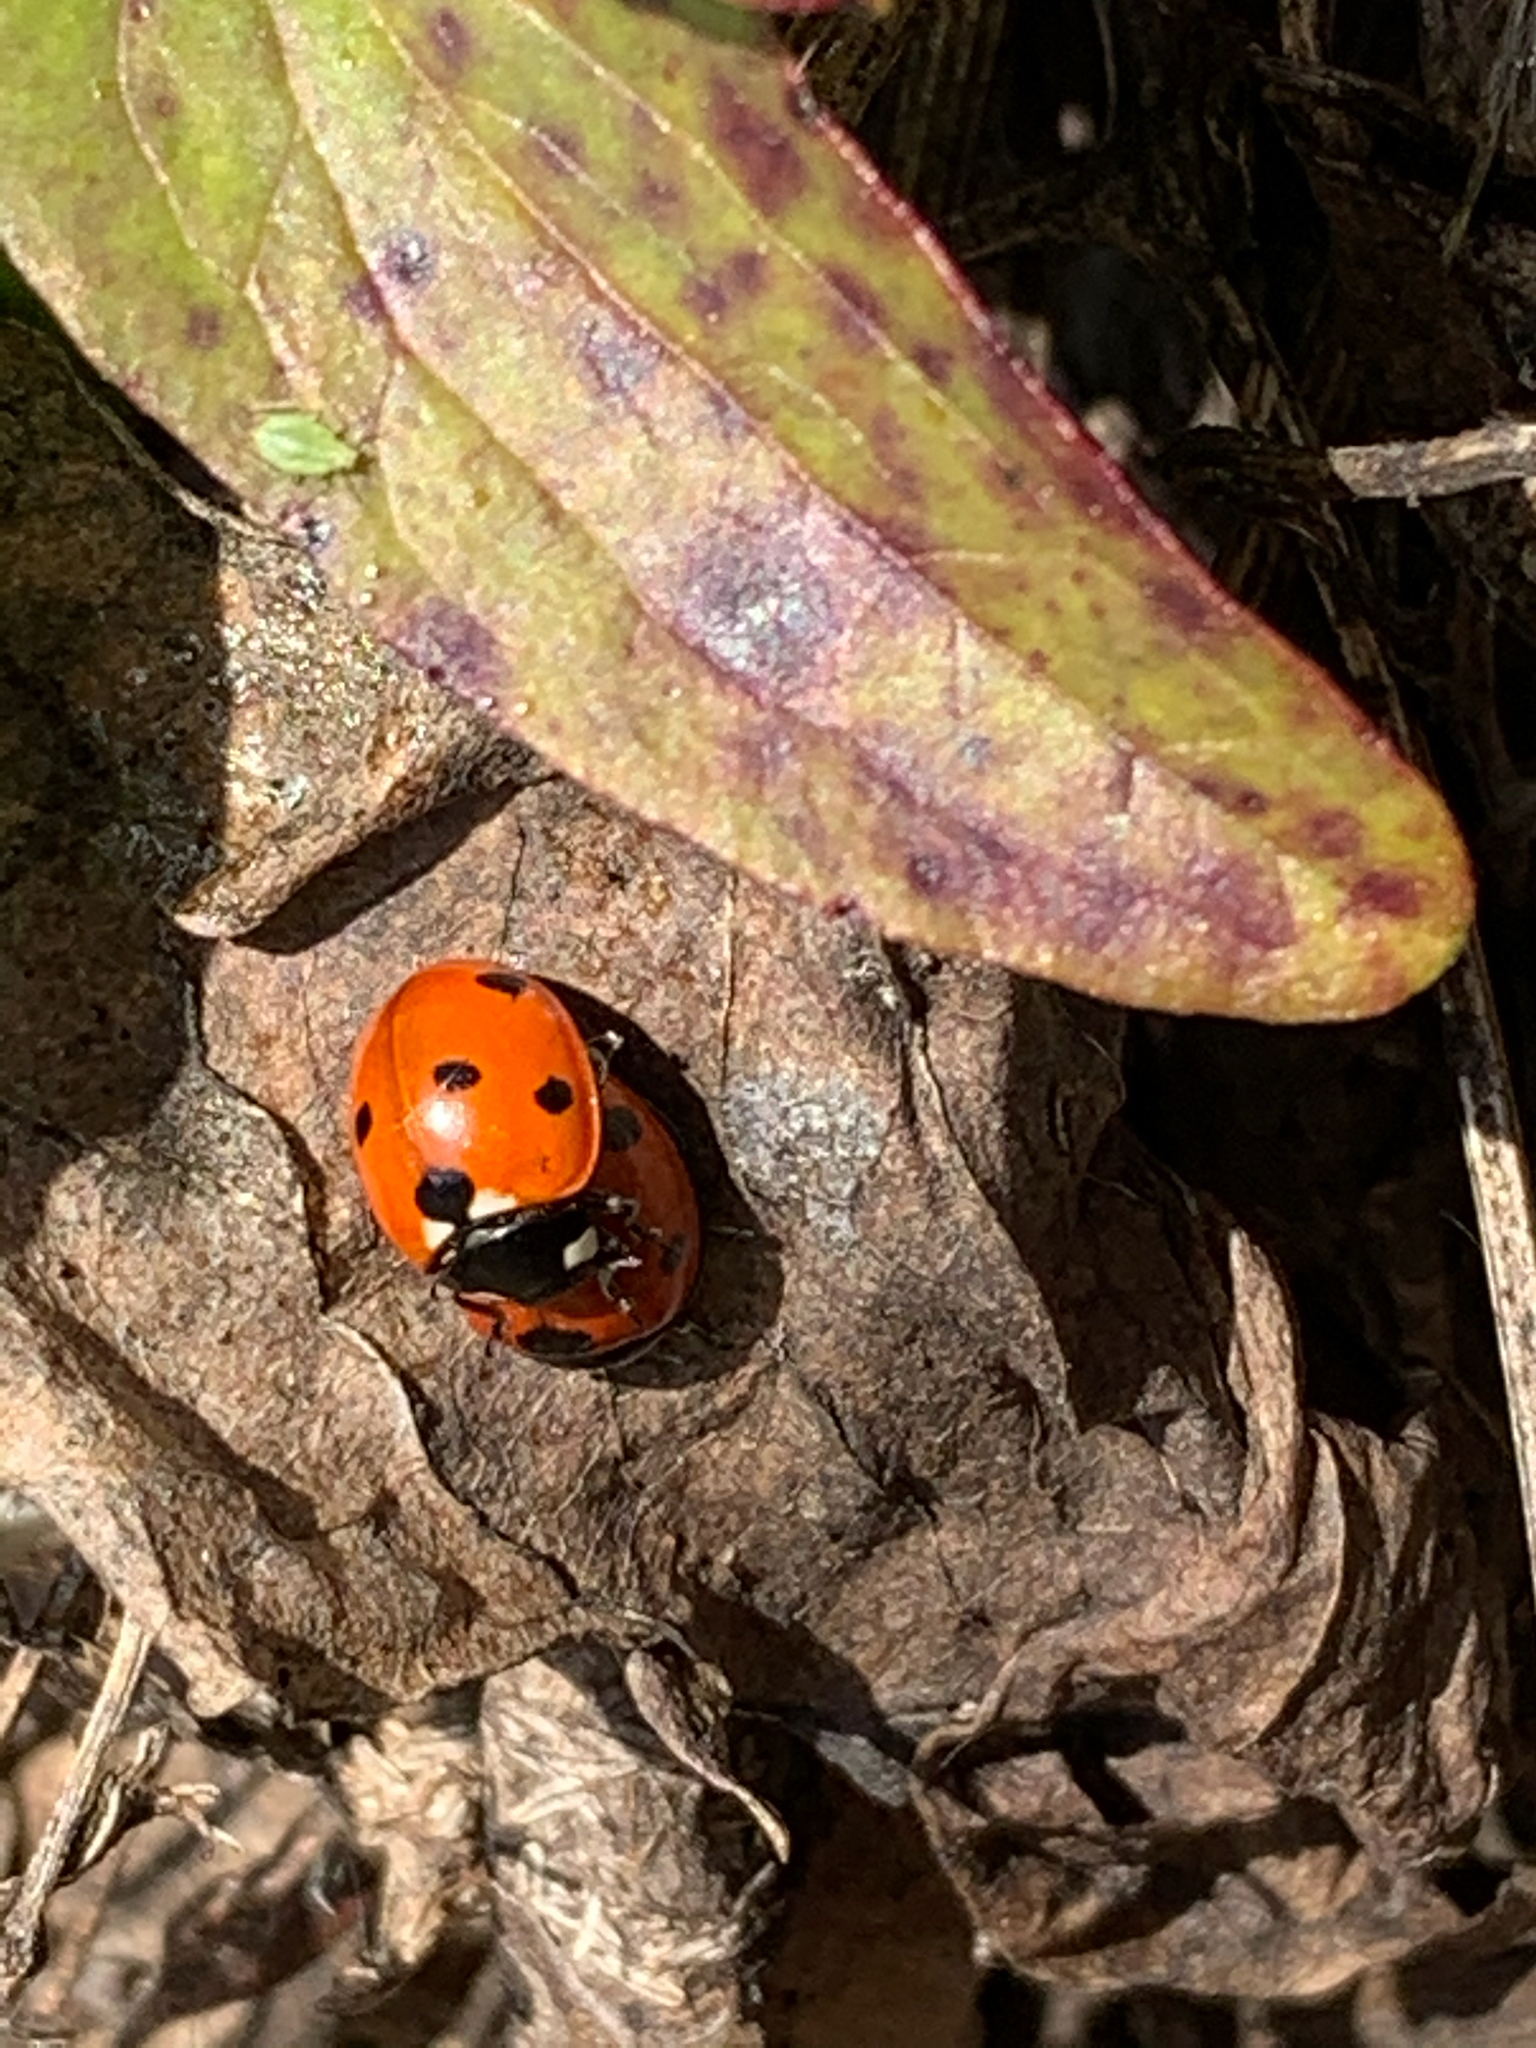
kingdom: Animalia
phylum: Arthropoda
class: Insecta
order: Coleoptera
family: Coccinellidae
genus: Coccinella
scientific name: Coccinella septempunctata
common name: Sevenspotted lady beetle
